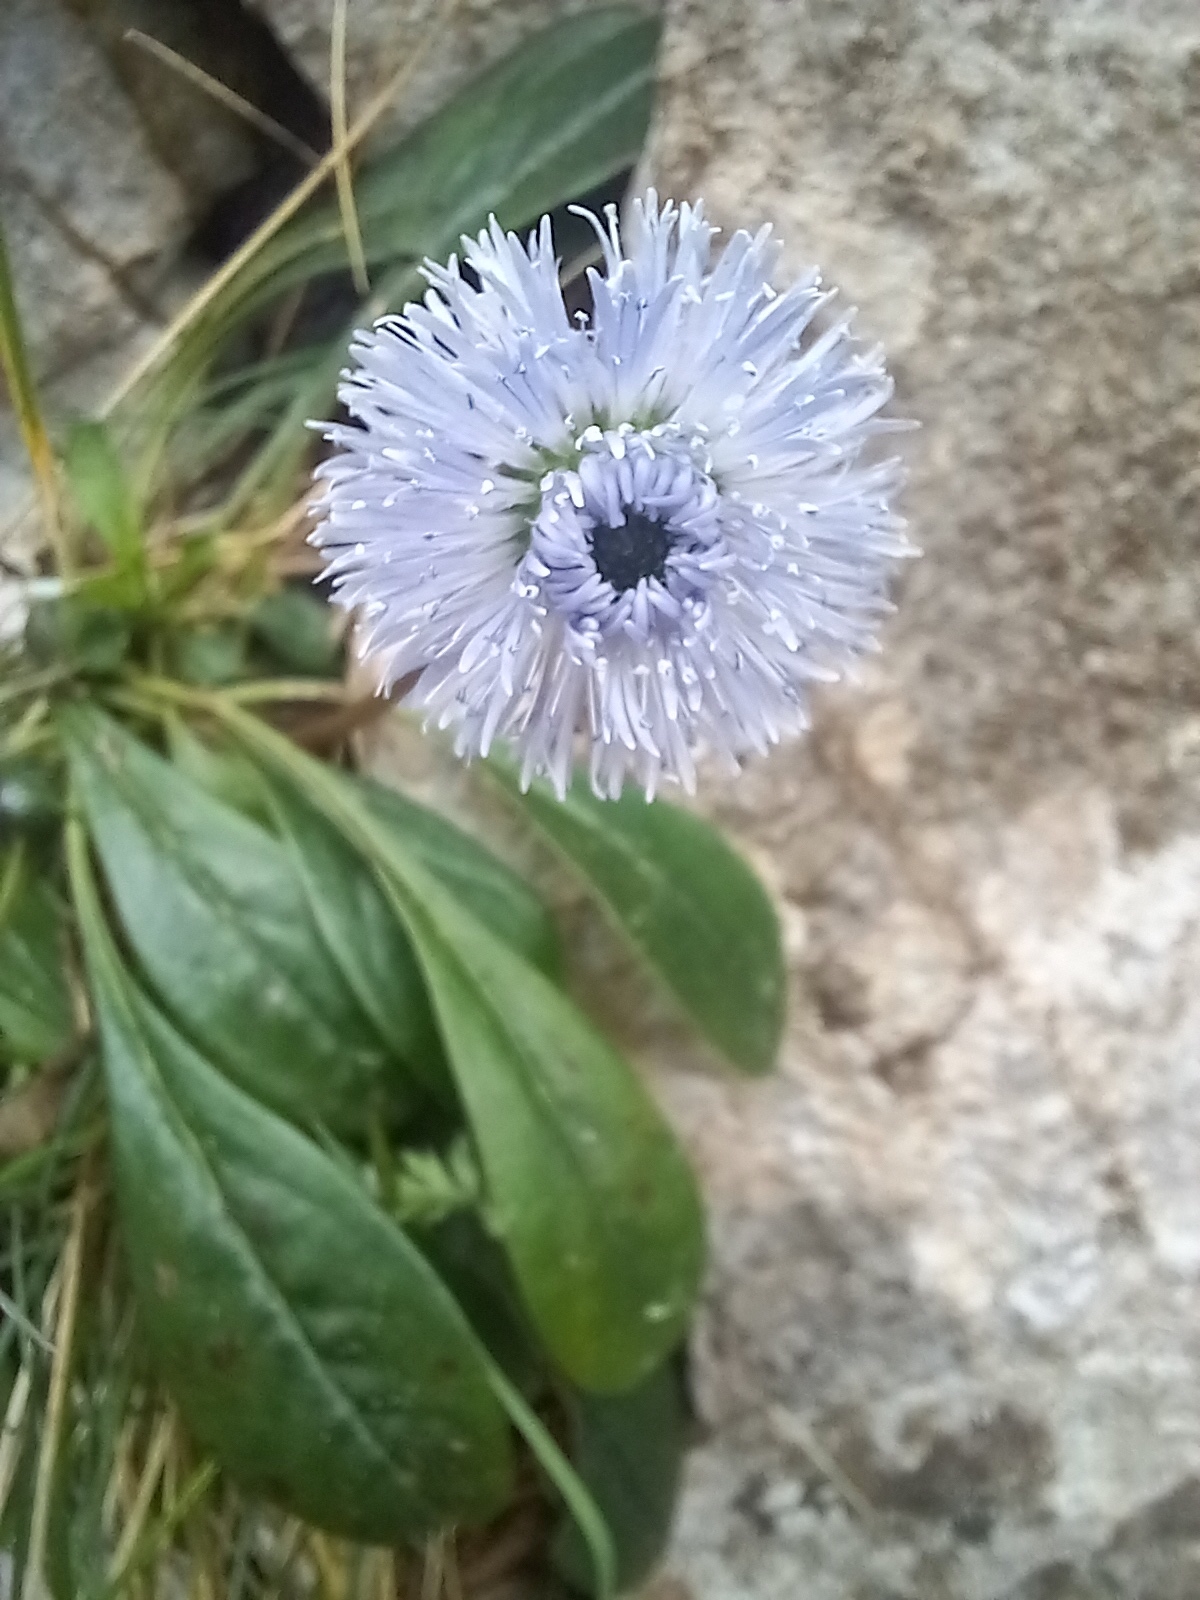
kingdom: Plantae
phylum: Tracheophyta
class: Magnoliopsida
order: Lamiales
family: Plantaginaceae
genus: Globularia
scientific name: Globularia nudicaulis
